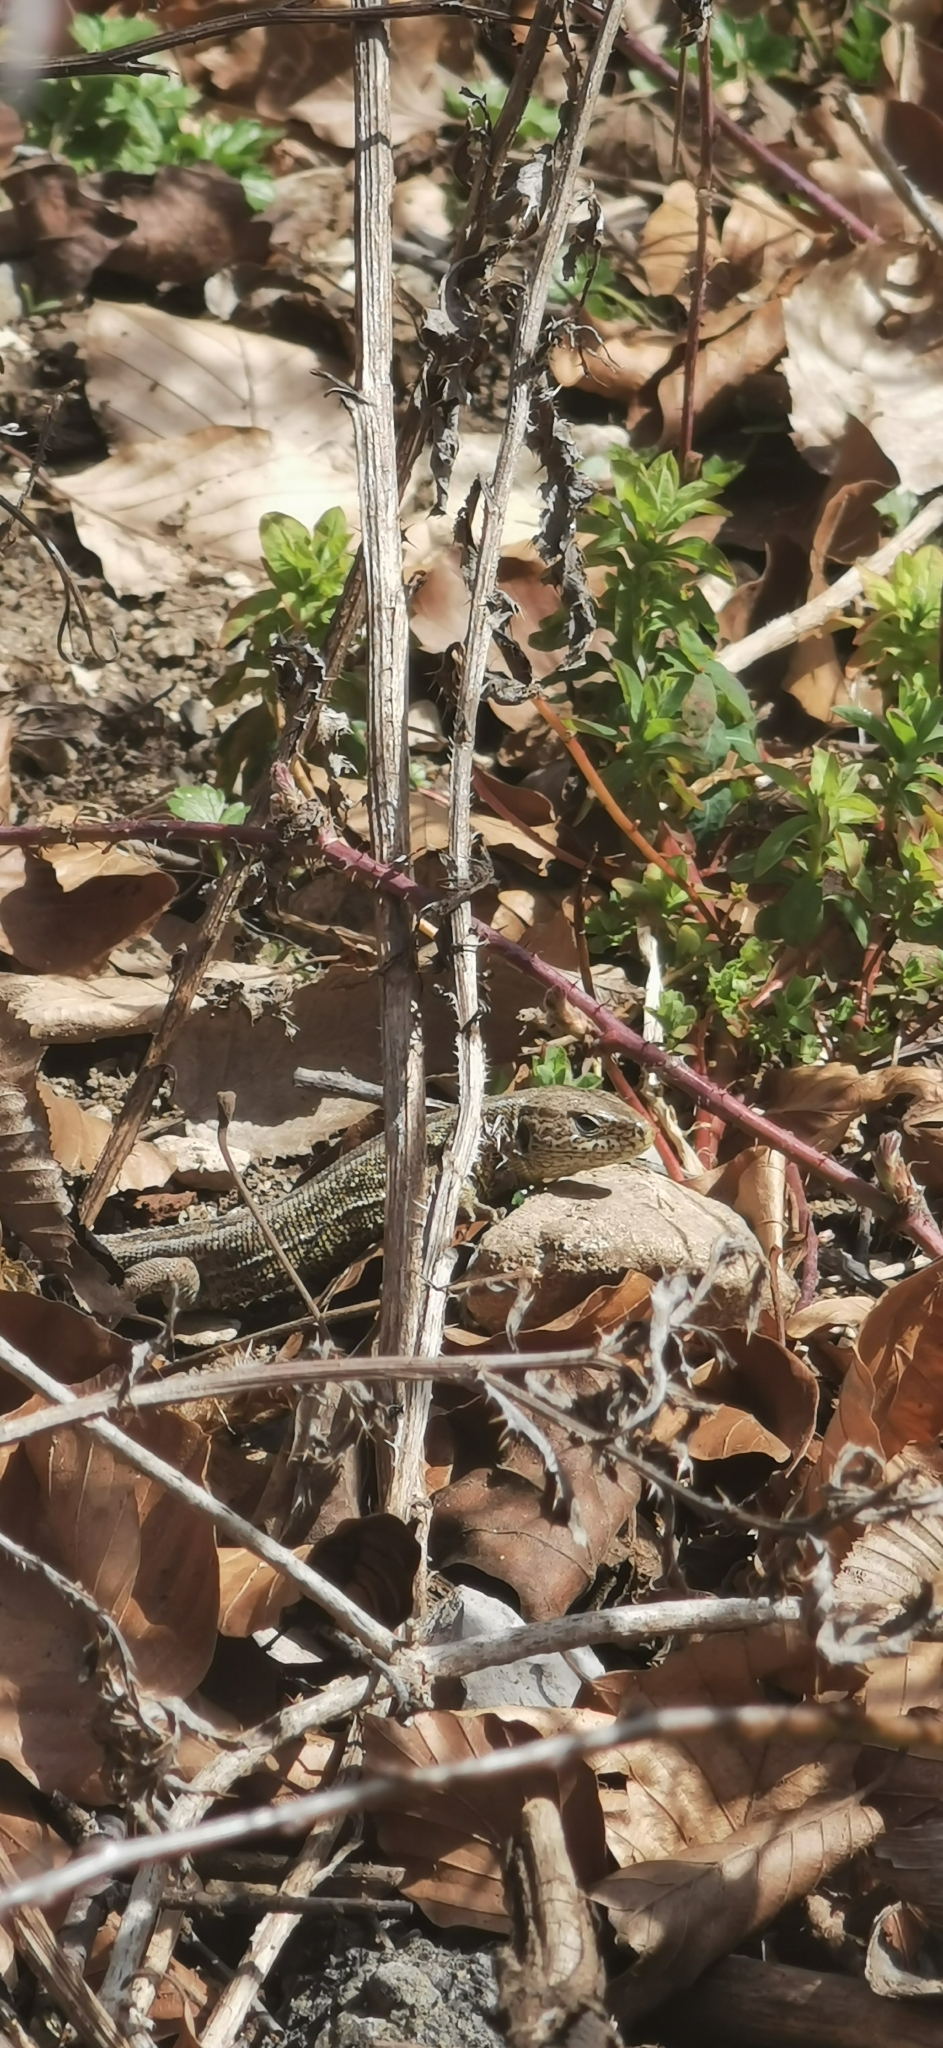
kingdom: Animalia
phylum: Chordata
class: Squamata
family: Lacertidae
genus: Lacerta
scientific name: Lacerta agilis
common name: Sand lizard
